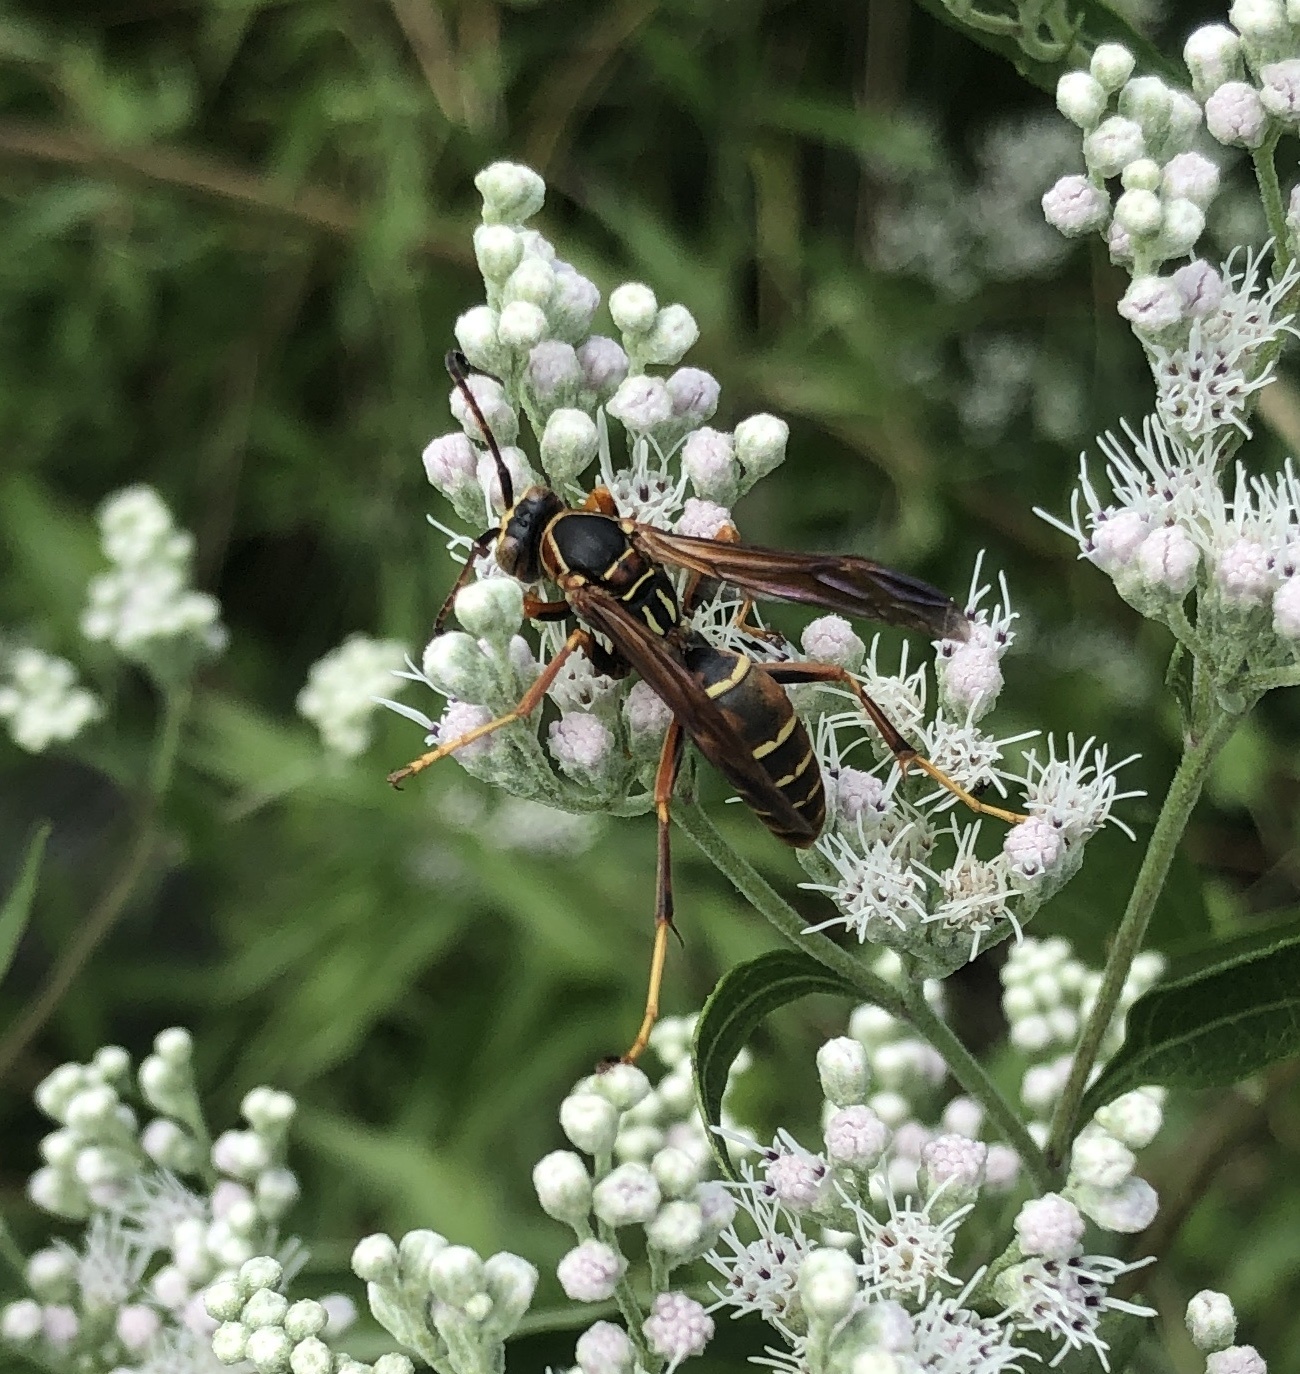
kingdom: Animalia
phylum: Arthropoda
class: Insecta
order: Hymenoptera
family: Eumenidae
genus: Polistes
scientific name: Polistes fuscatus
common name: Dark paper wasp
